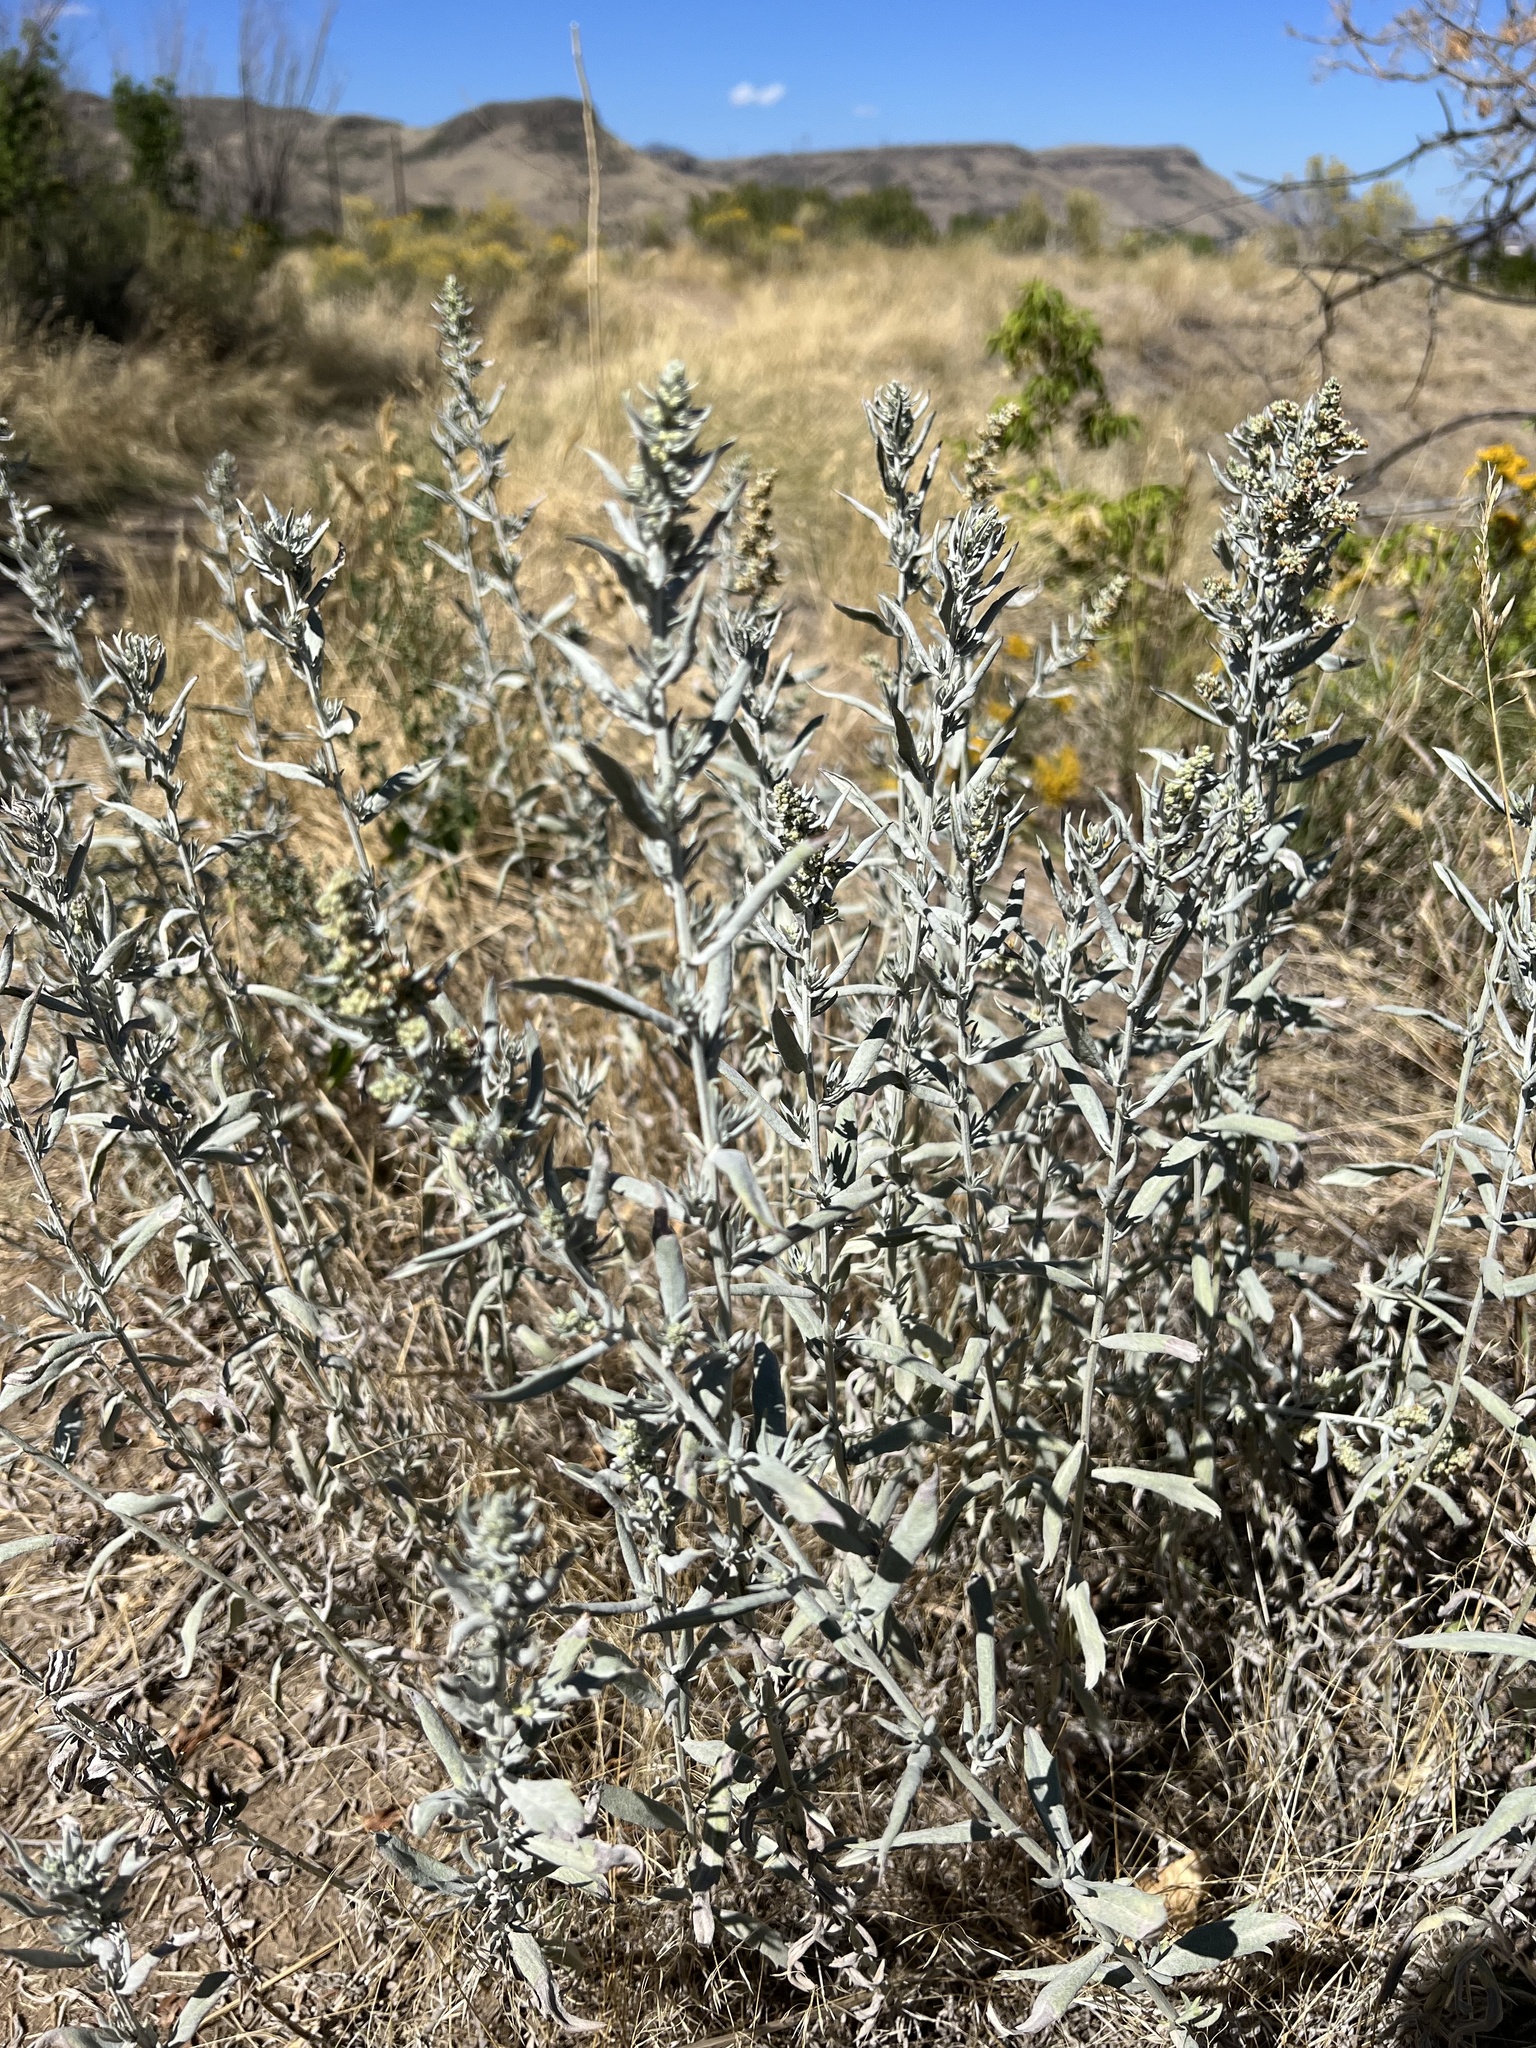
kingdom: Plantae
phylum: Tracheophyta
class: Magnoliopsida
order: Asterales
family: Asteraceae
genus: Artemisia
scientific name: Artemisia ludoviciana
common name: Western mugwort
